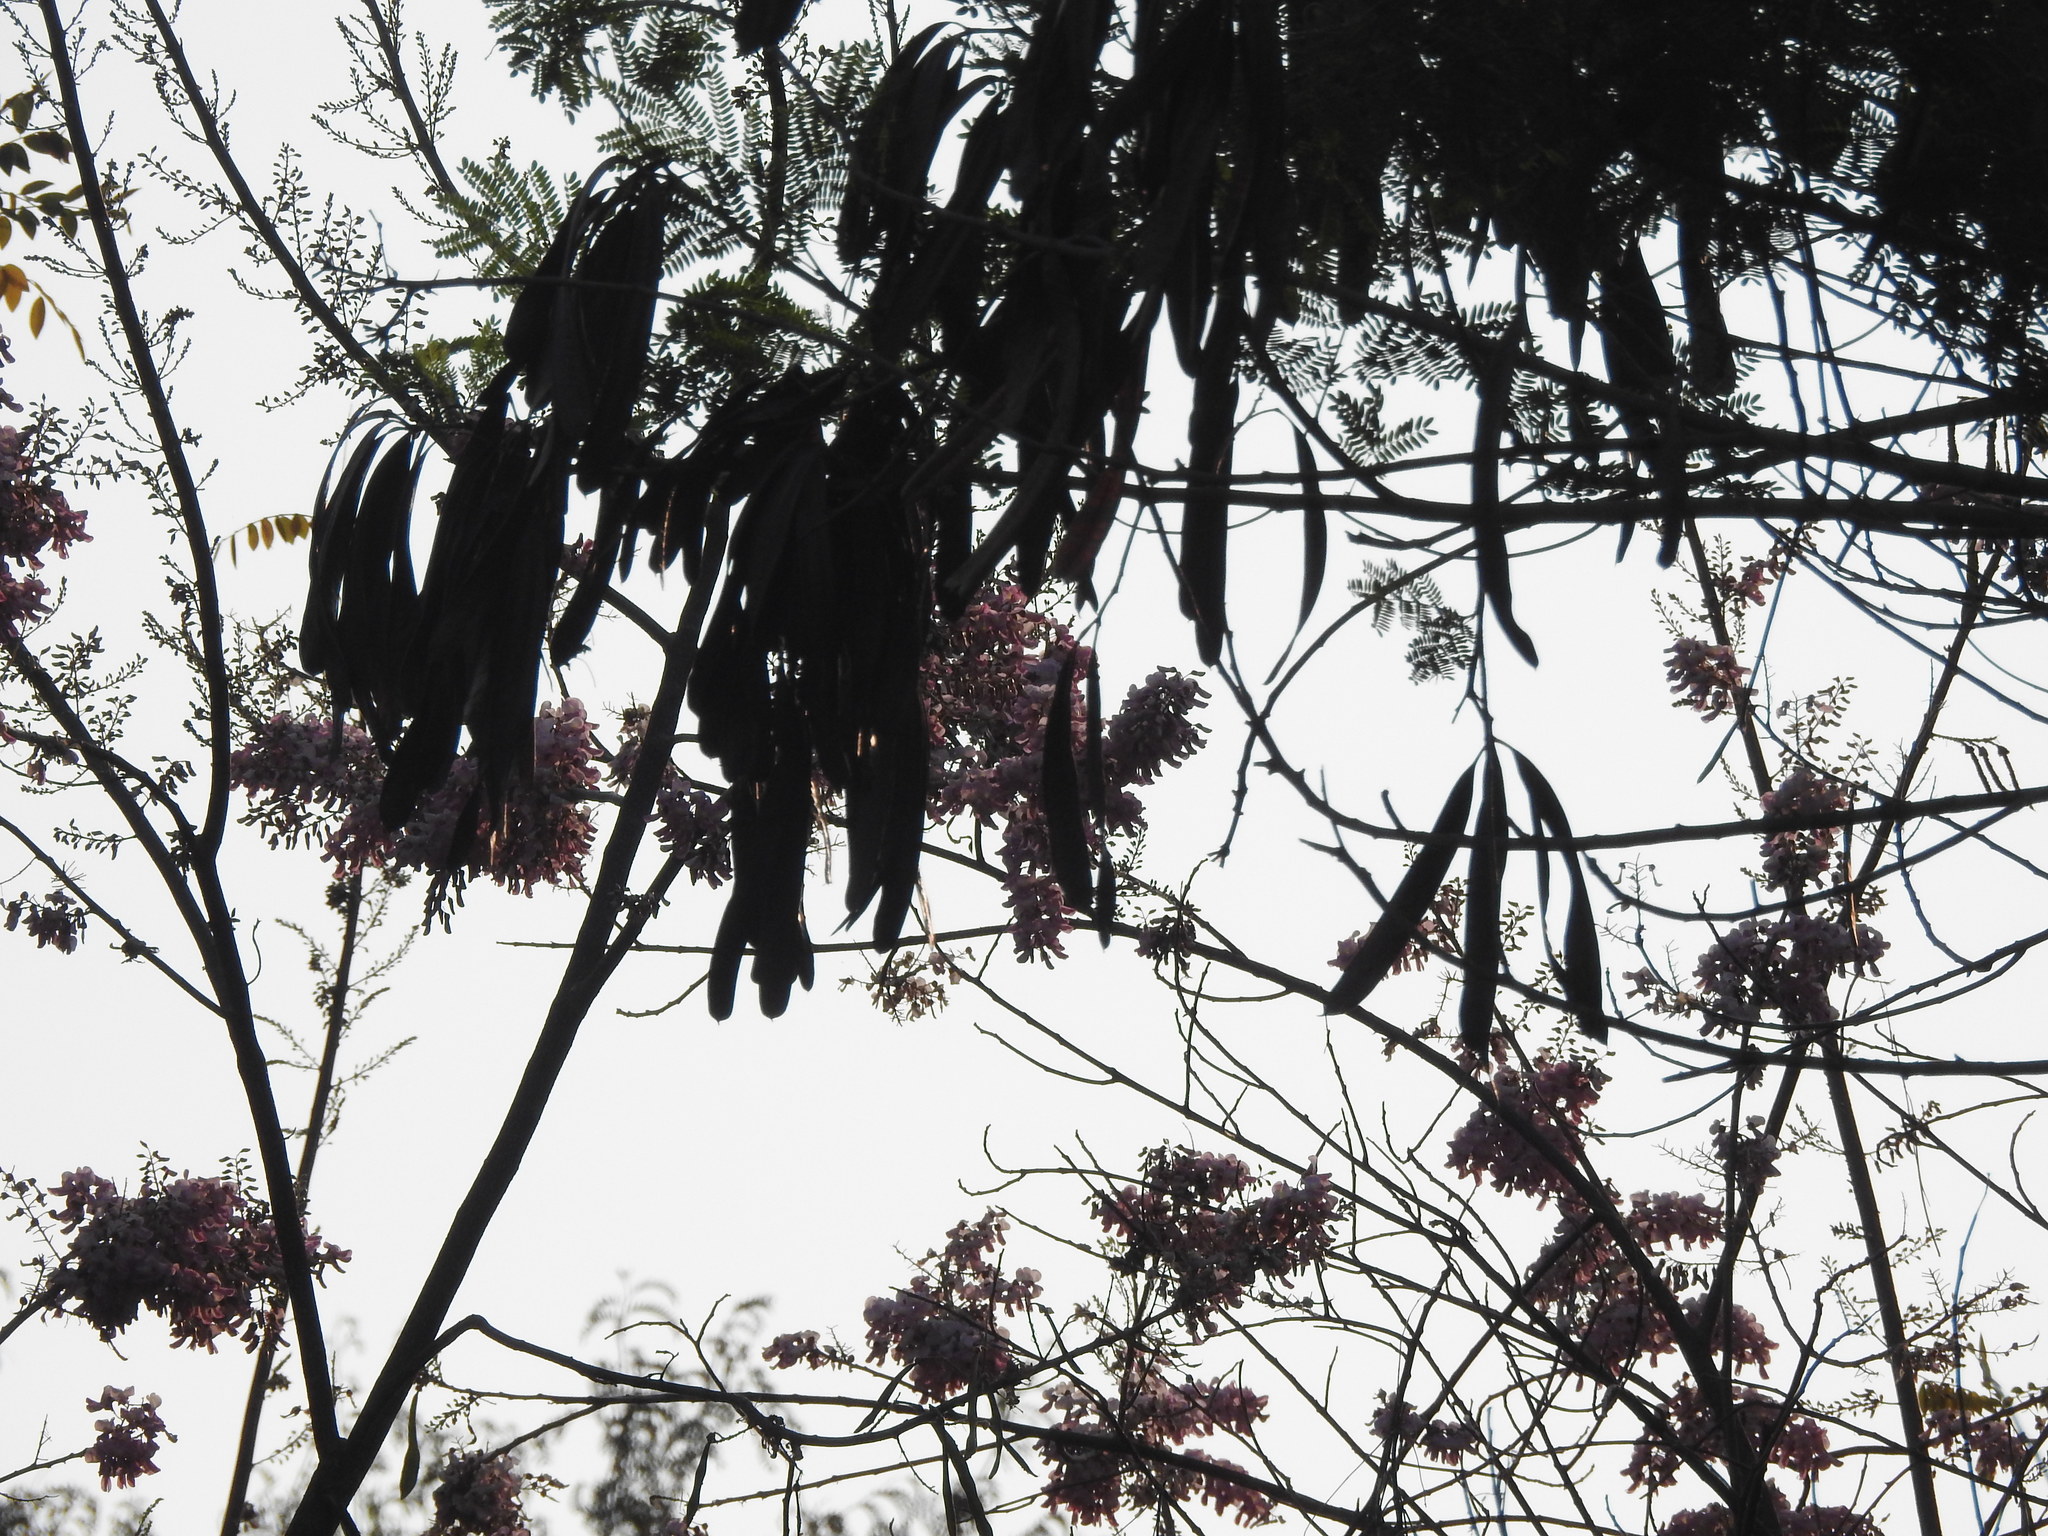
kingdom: Plantae
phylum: Tracheophyta
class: Magnoliopsida
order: Fabales
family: Fabaceae
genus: Gliricidia
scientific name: Gliricidia sepium
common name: Quickstick
